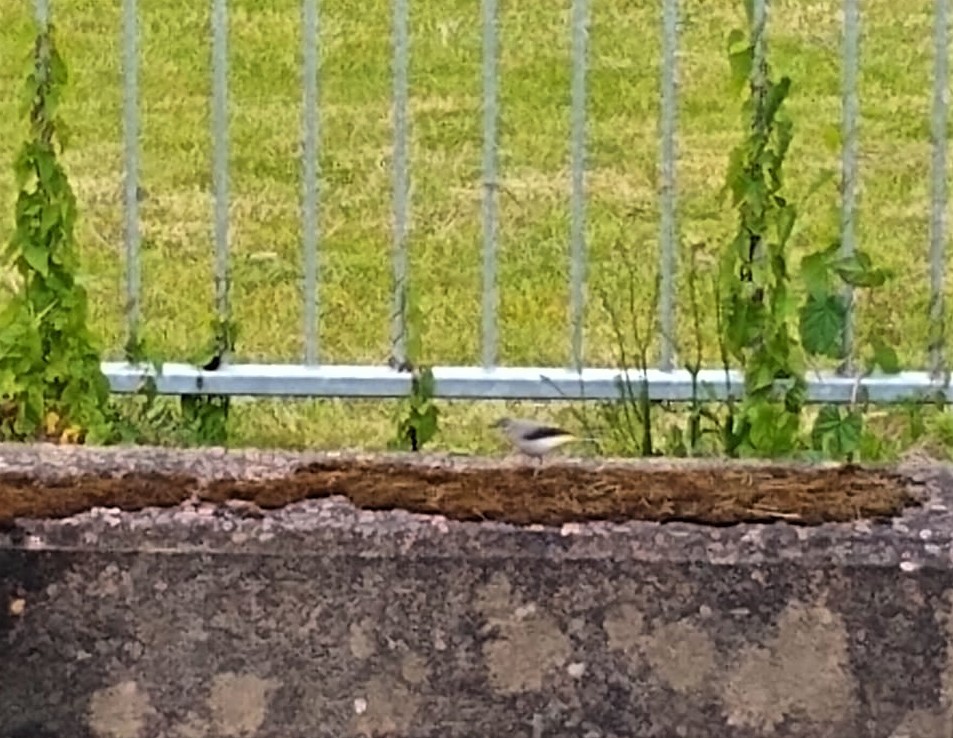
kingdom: Animalia
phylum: Chordata
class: Aves
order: Passeriformes
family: Motacillidae
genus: Motacilla
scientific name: Motacilla cinerea
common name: Grey wagtail
